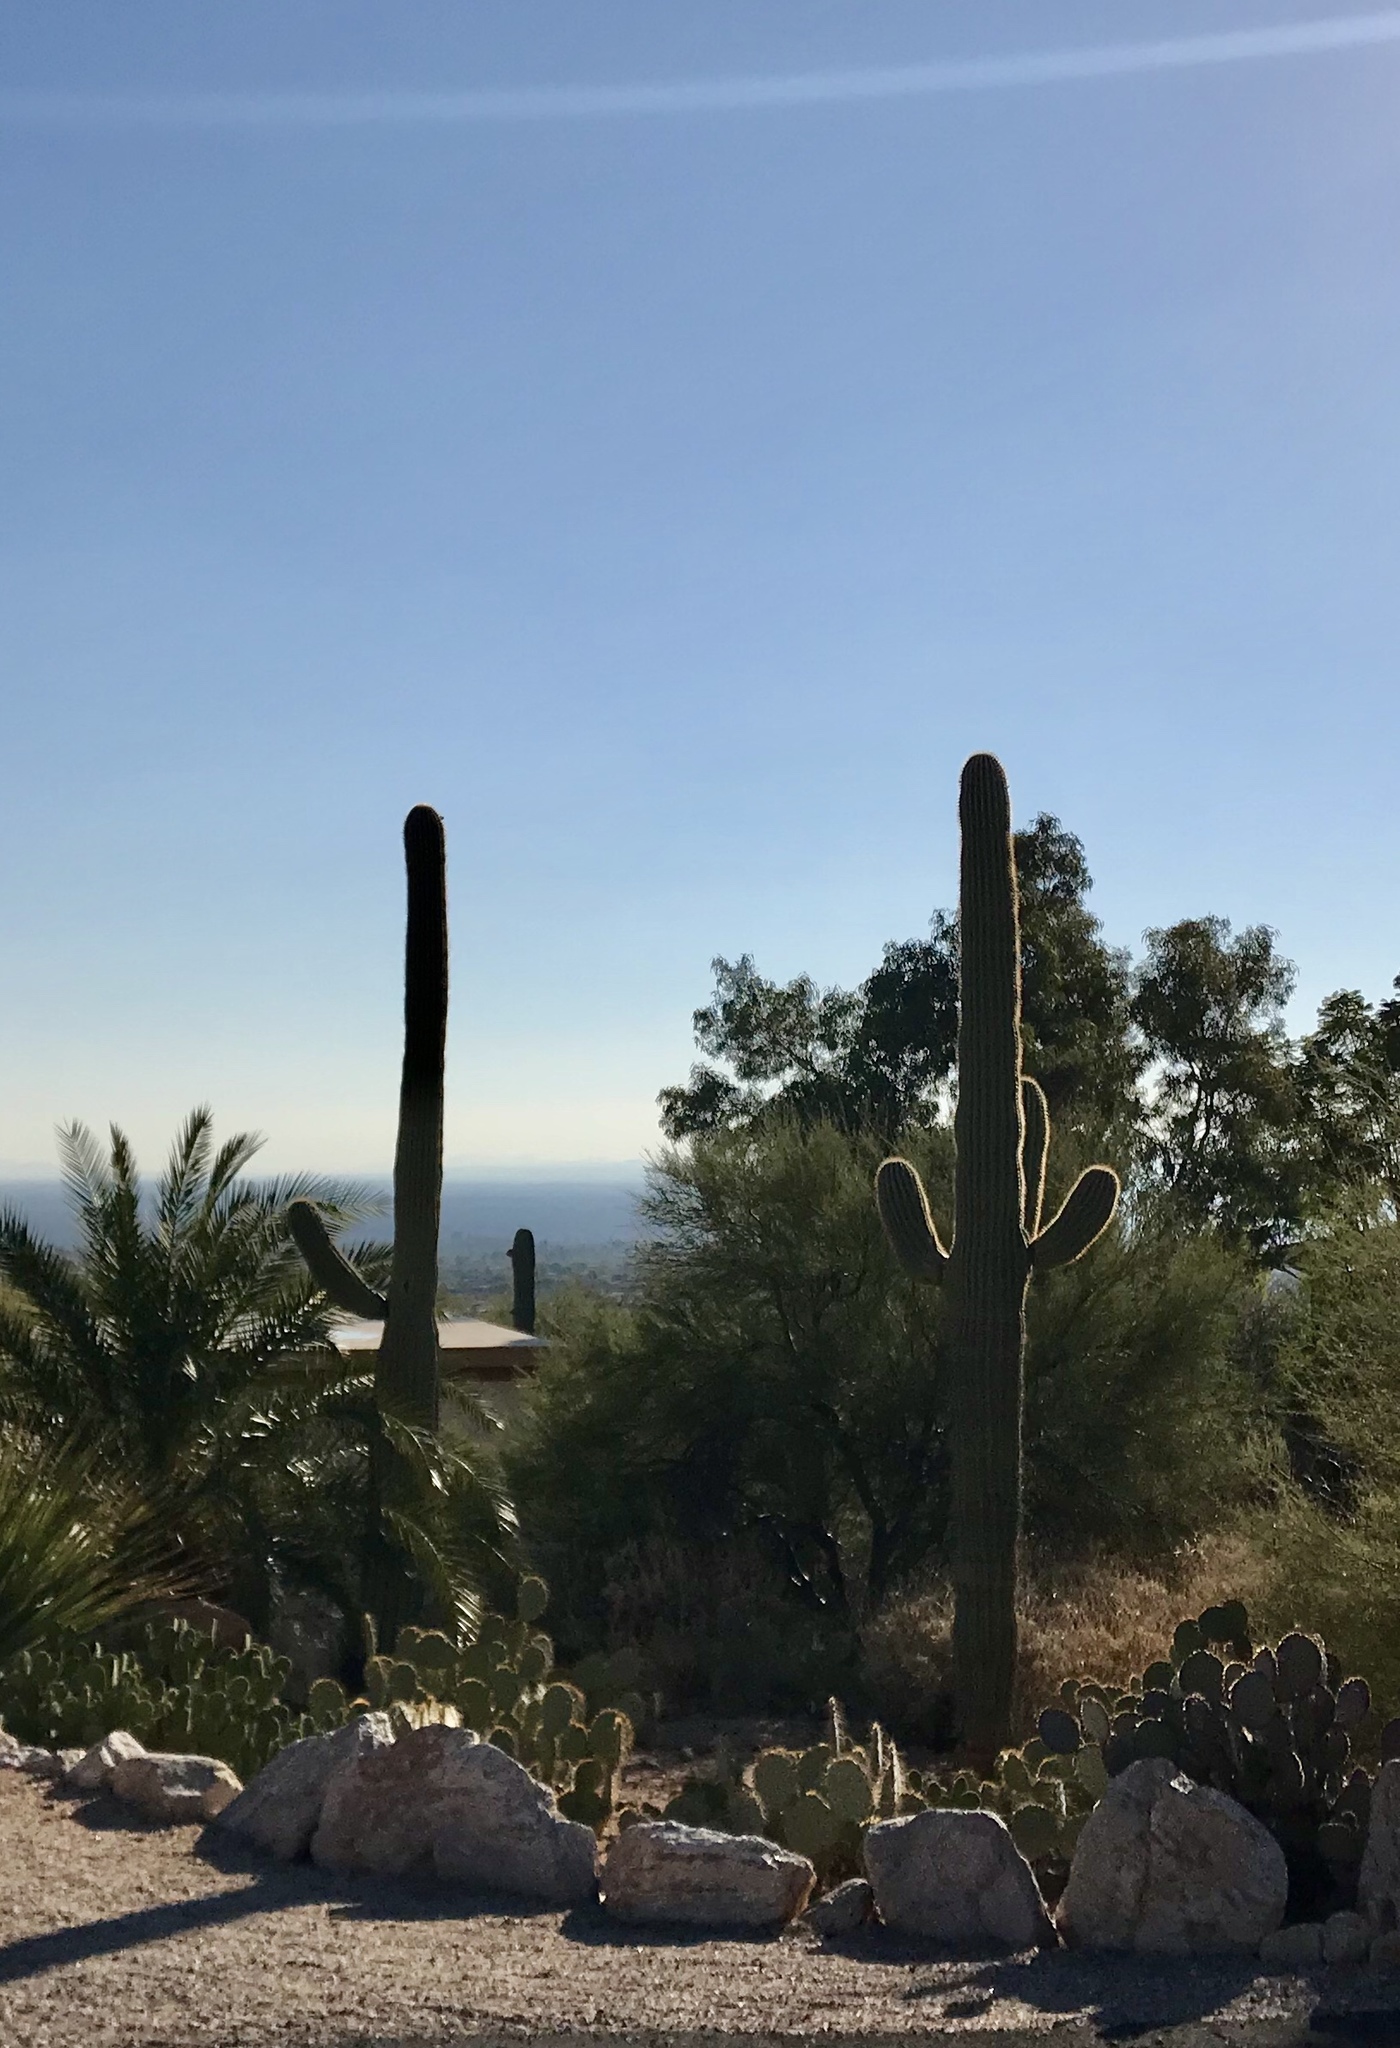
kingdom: Plantae
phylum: Tracheophyta
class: Magnoliopsida
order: Caryophyllales
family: Cactaceae
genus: Carnegiea
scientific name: Carnegiea gigantea
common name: Saguaro
